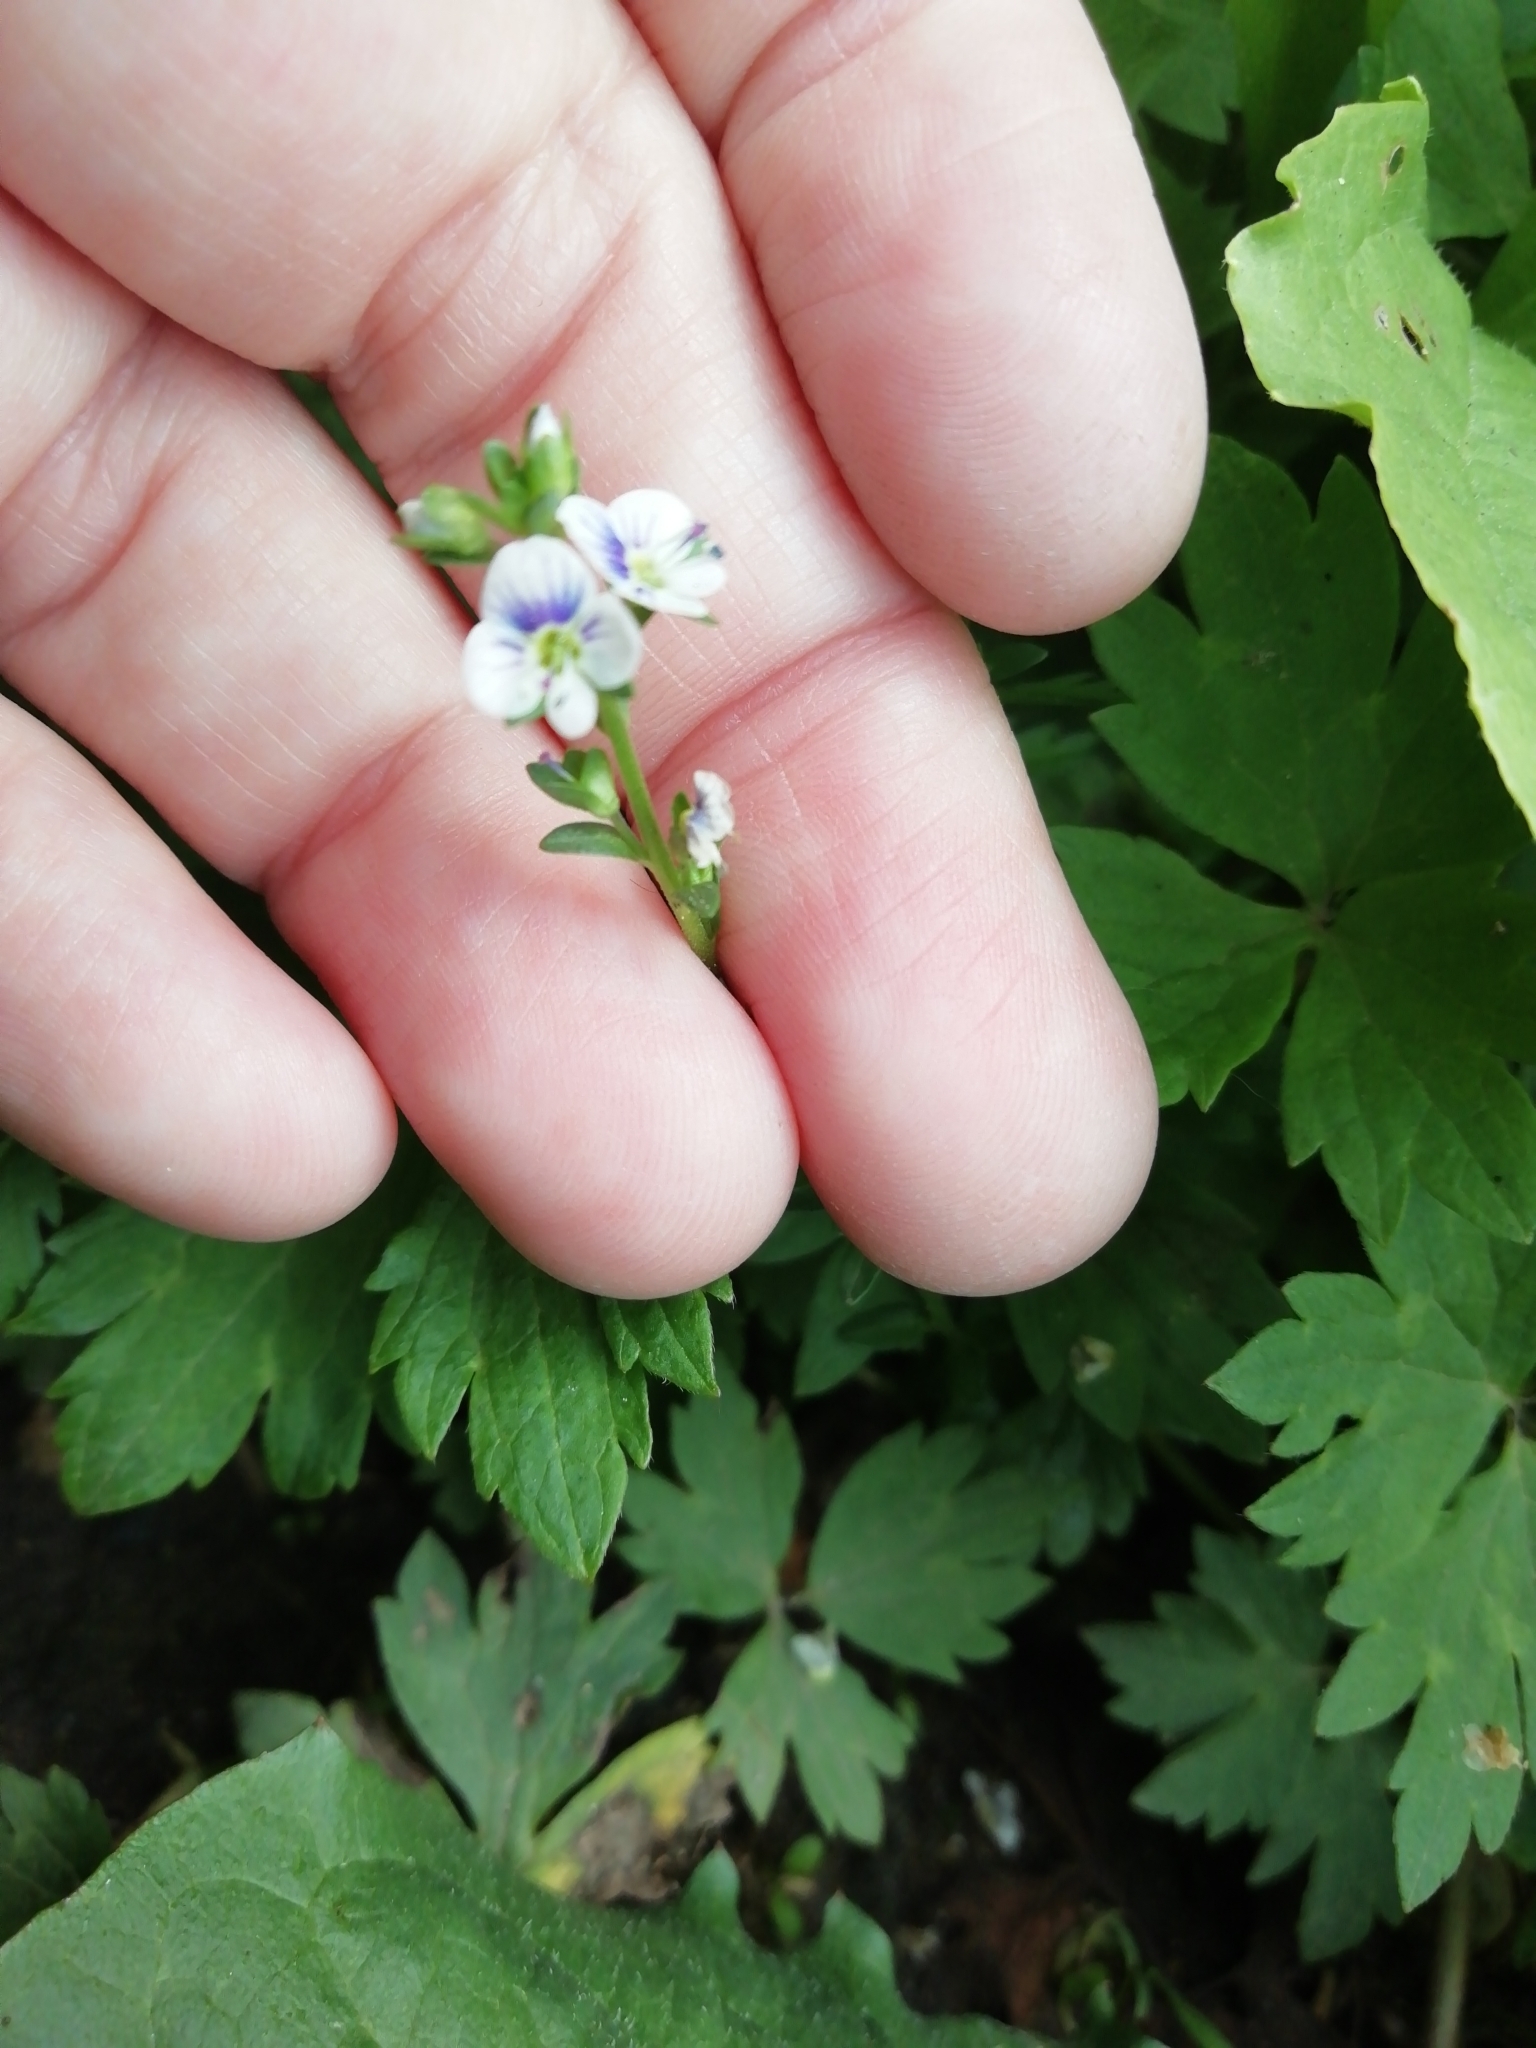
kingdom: Plantae
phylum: Tracheophyta
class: Magnoliopsida
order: Lamiales
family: Plantaginaceae
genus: Veronica
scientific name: Veronica serpyllifolia
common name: Thyme-leaved speedwell
